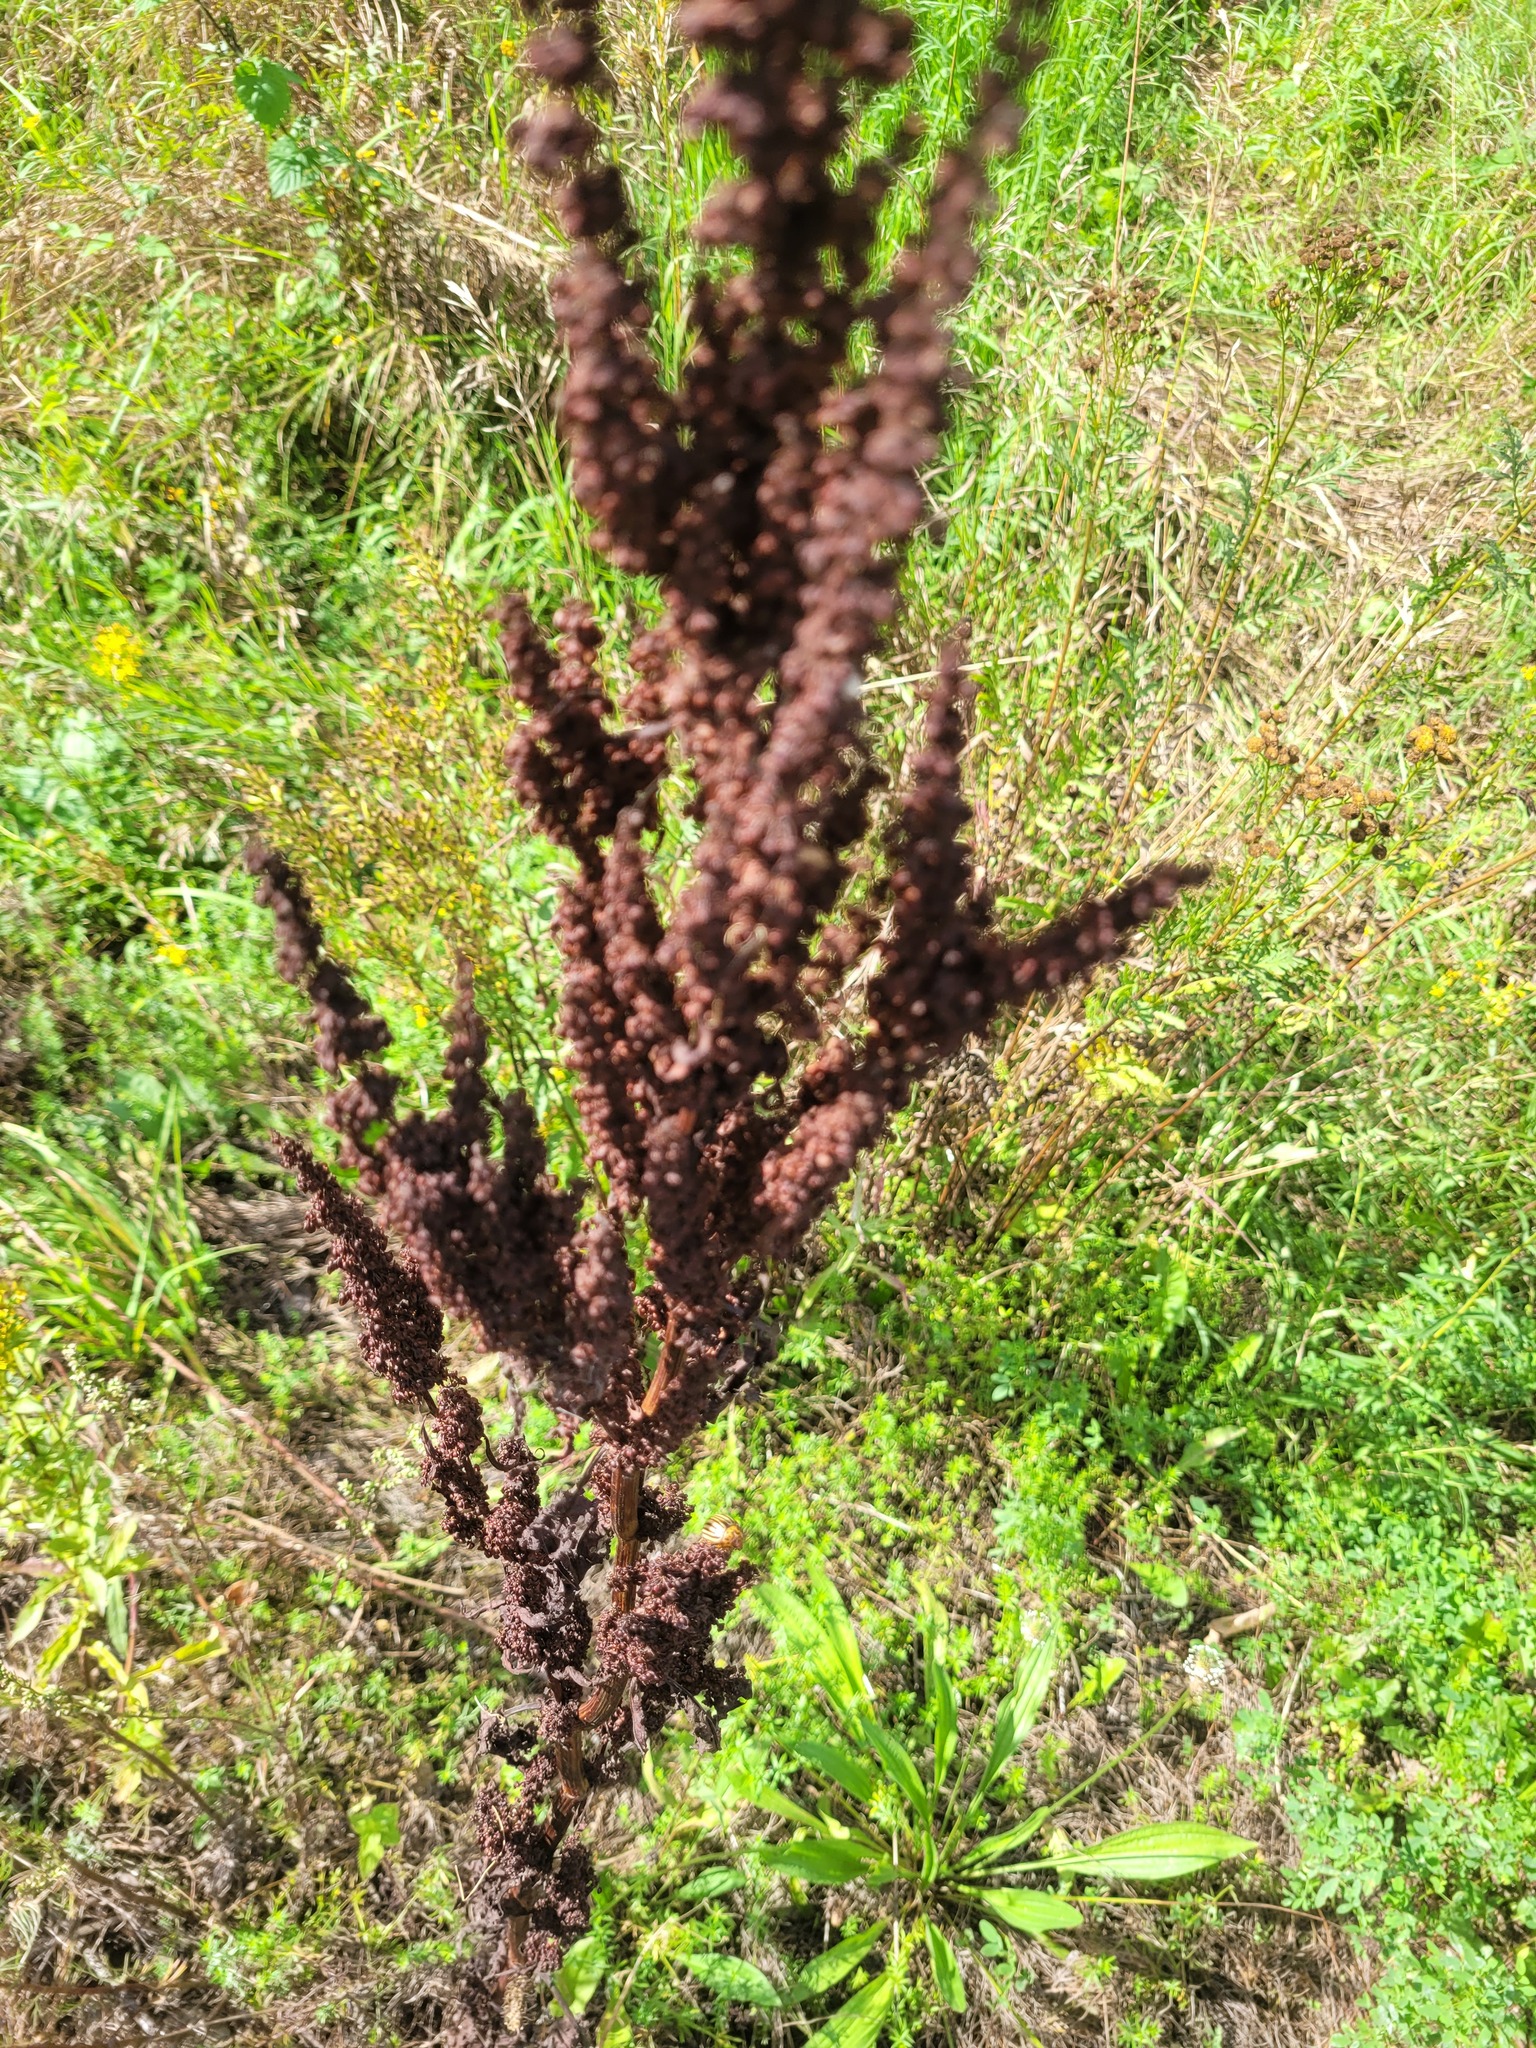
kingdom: Plantae
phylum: Tracheophyta
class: Magnoliopsida
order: Caryophyllales
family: Polygonaceae
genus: Rumex
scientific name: Rumex crispus
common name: Curled dock
